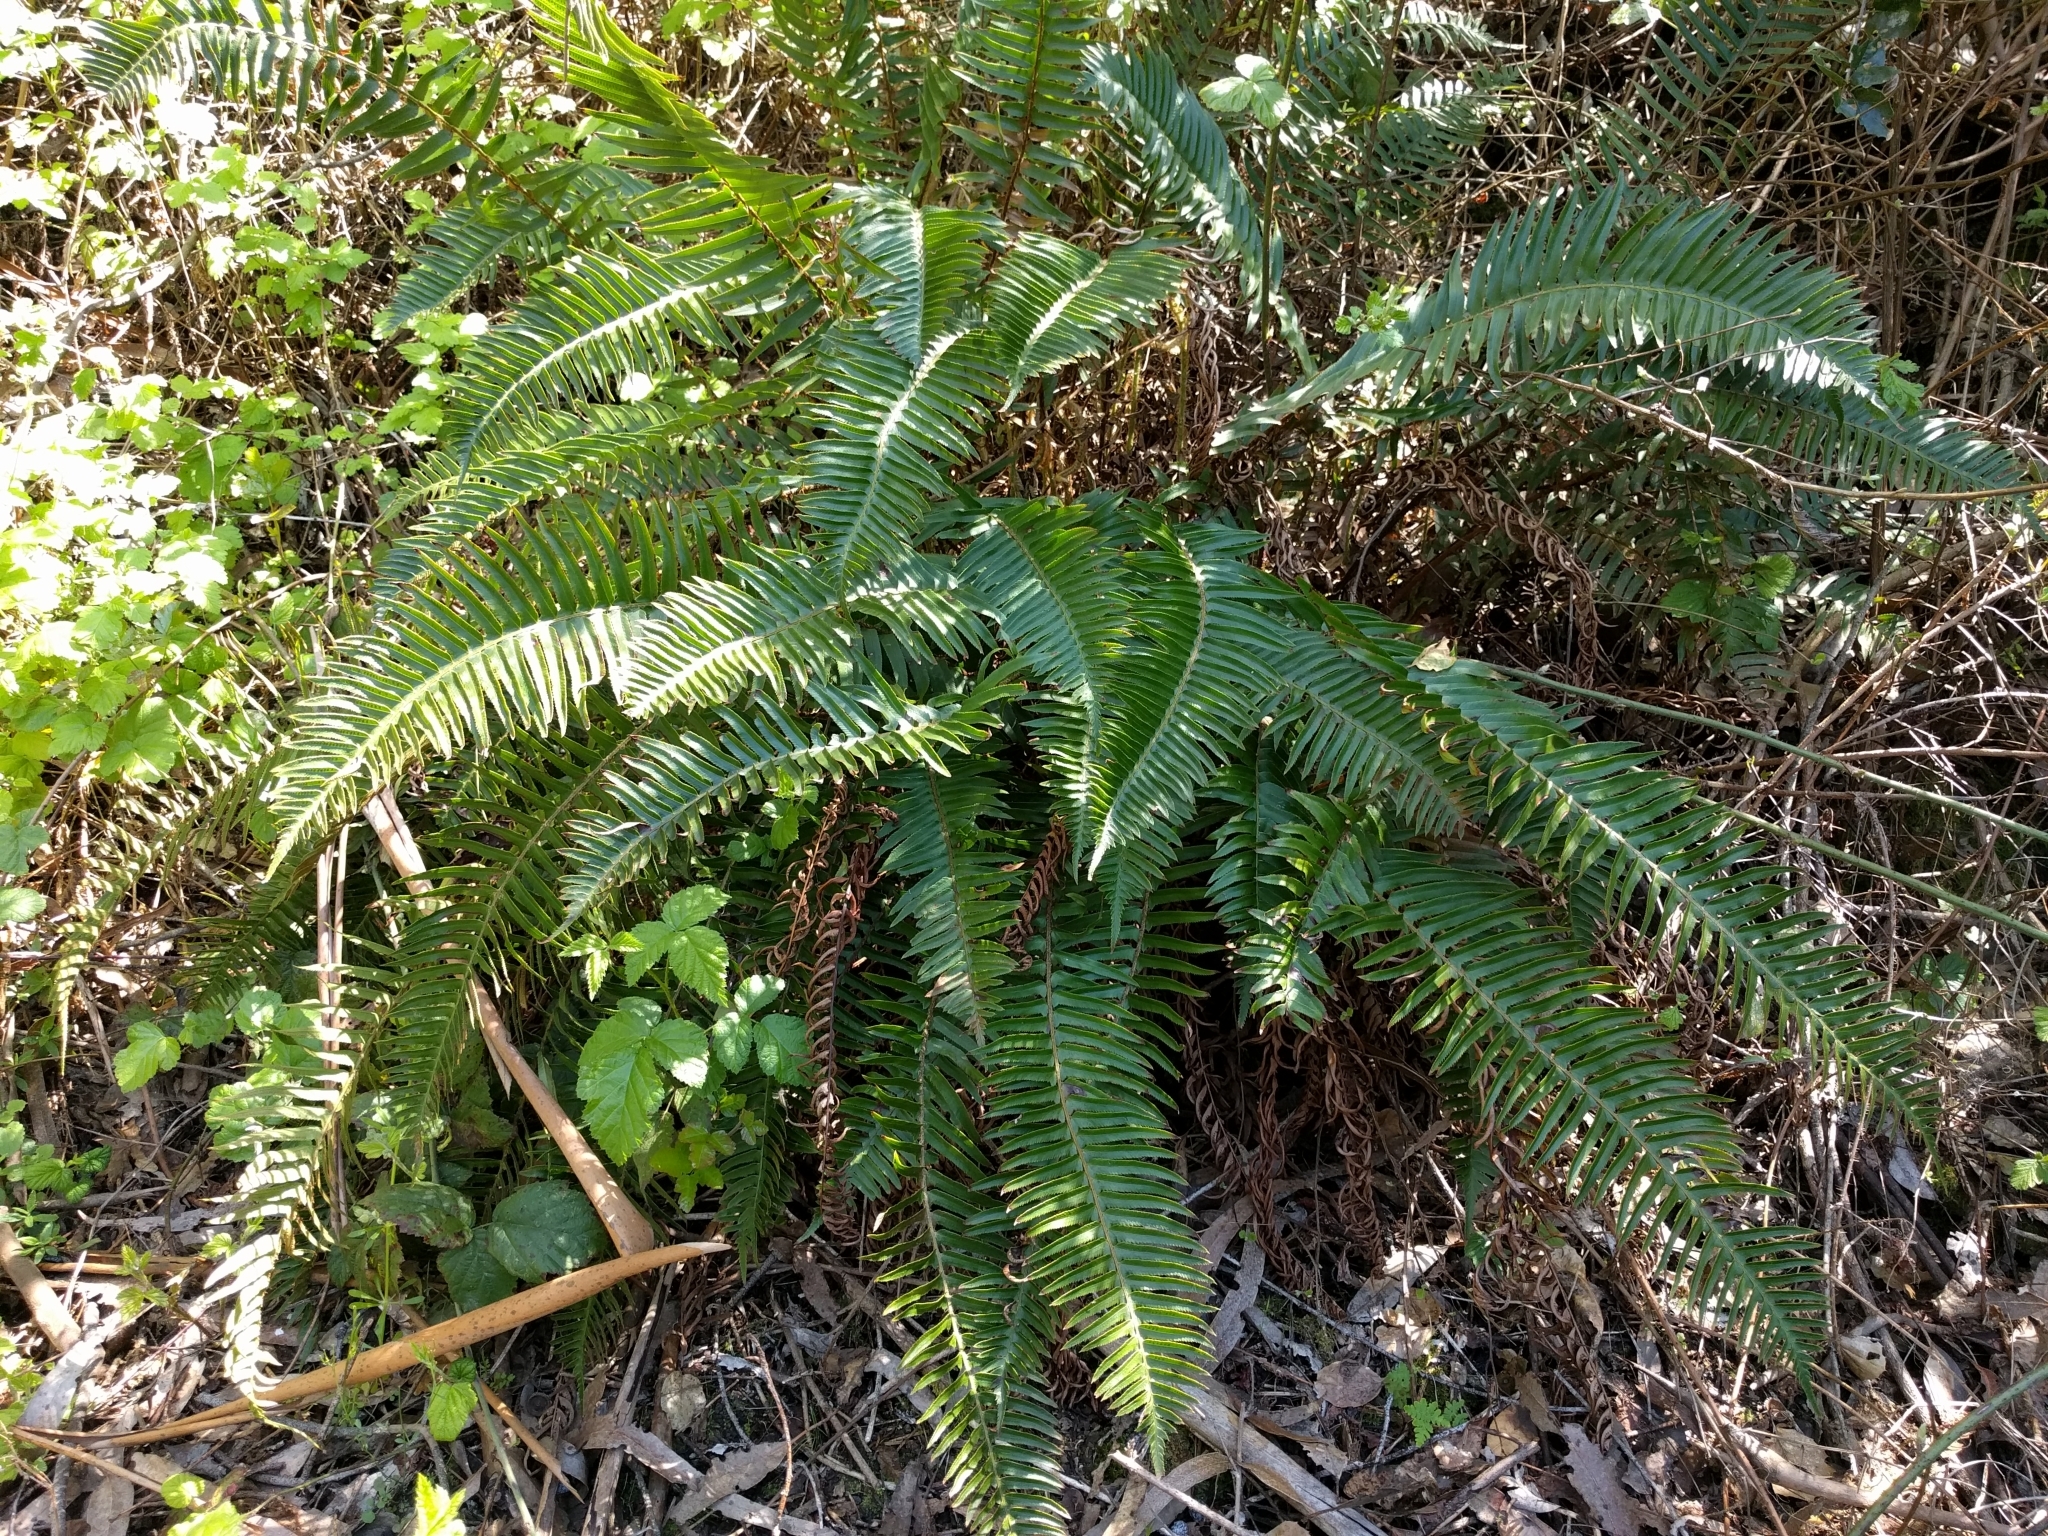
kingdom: Plantae
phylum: Tracheophyta
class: Polypodiopsida
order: Polypodiales
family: Dryopteridaceae
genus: Polystichum
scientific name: Polystichum munitum
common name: Western sword-fern
